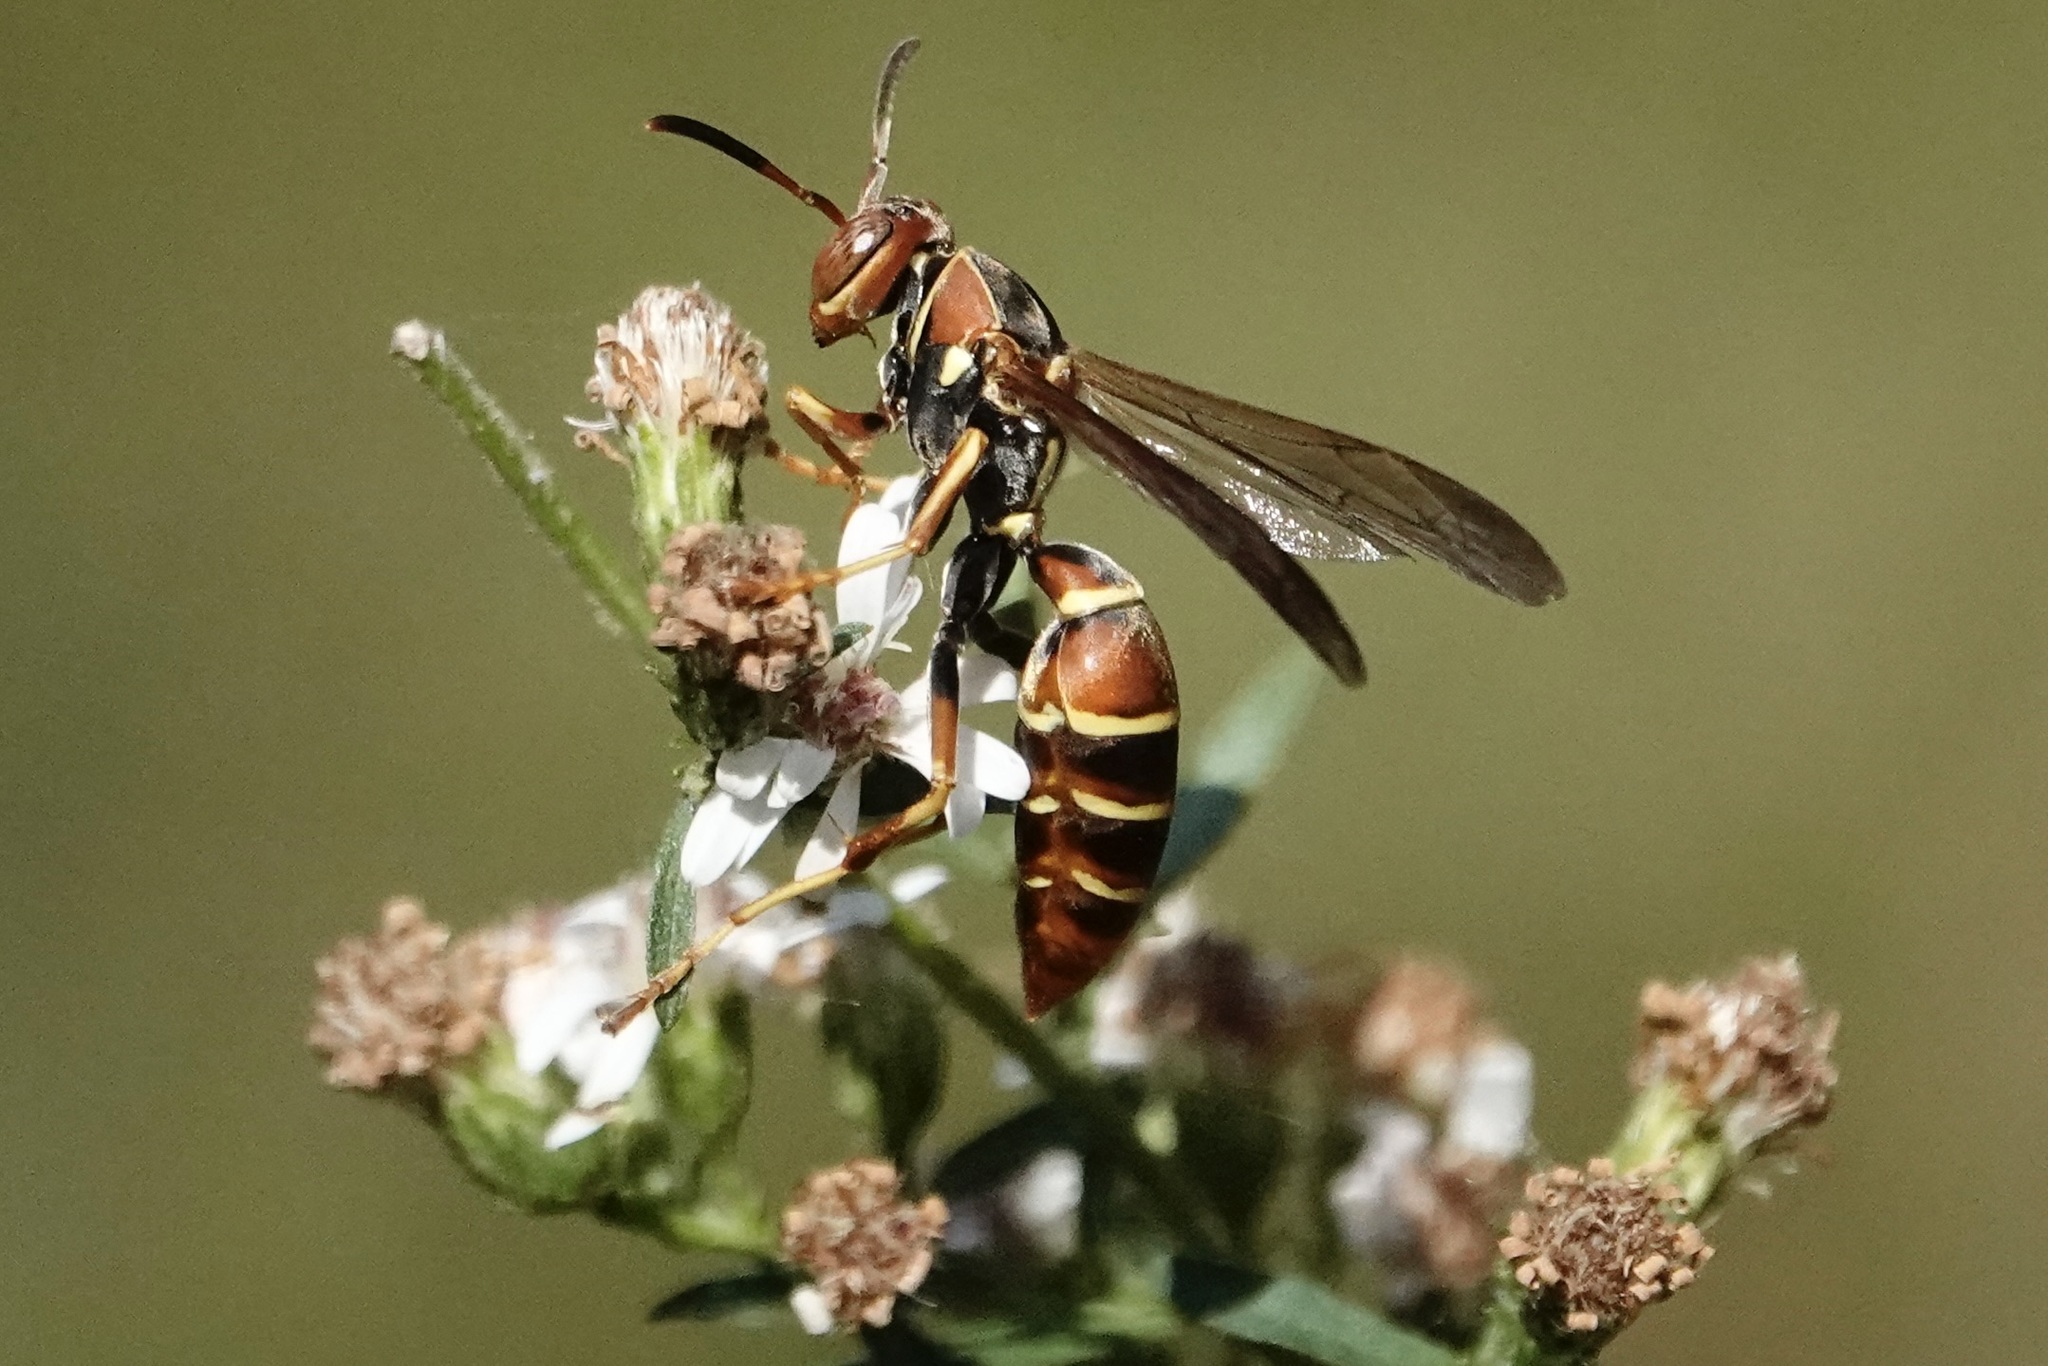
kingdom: Animalia
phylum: Arthropoda
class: Insecta
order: Hymenoptera
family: Eumenidae
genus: Polistes
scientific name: Polistes dorsalis
